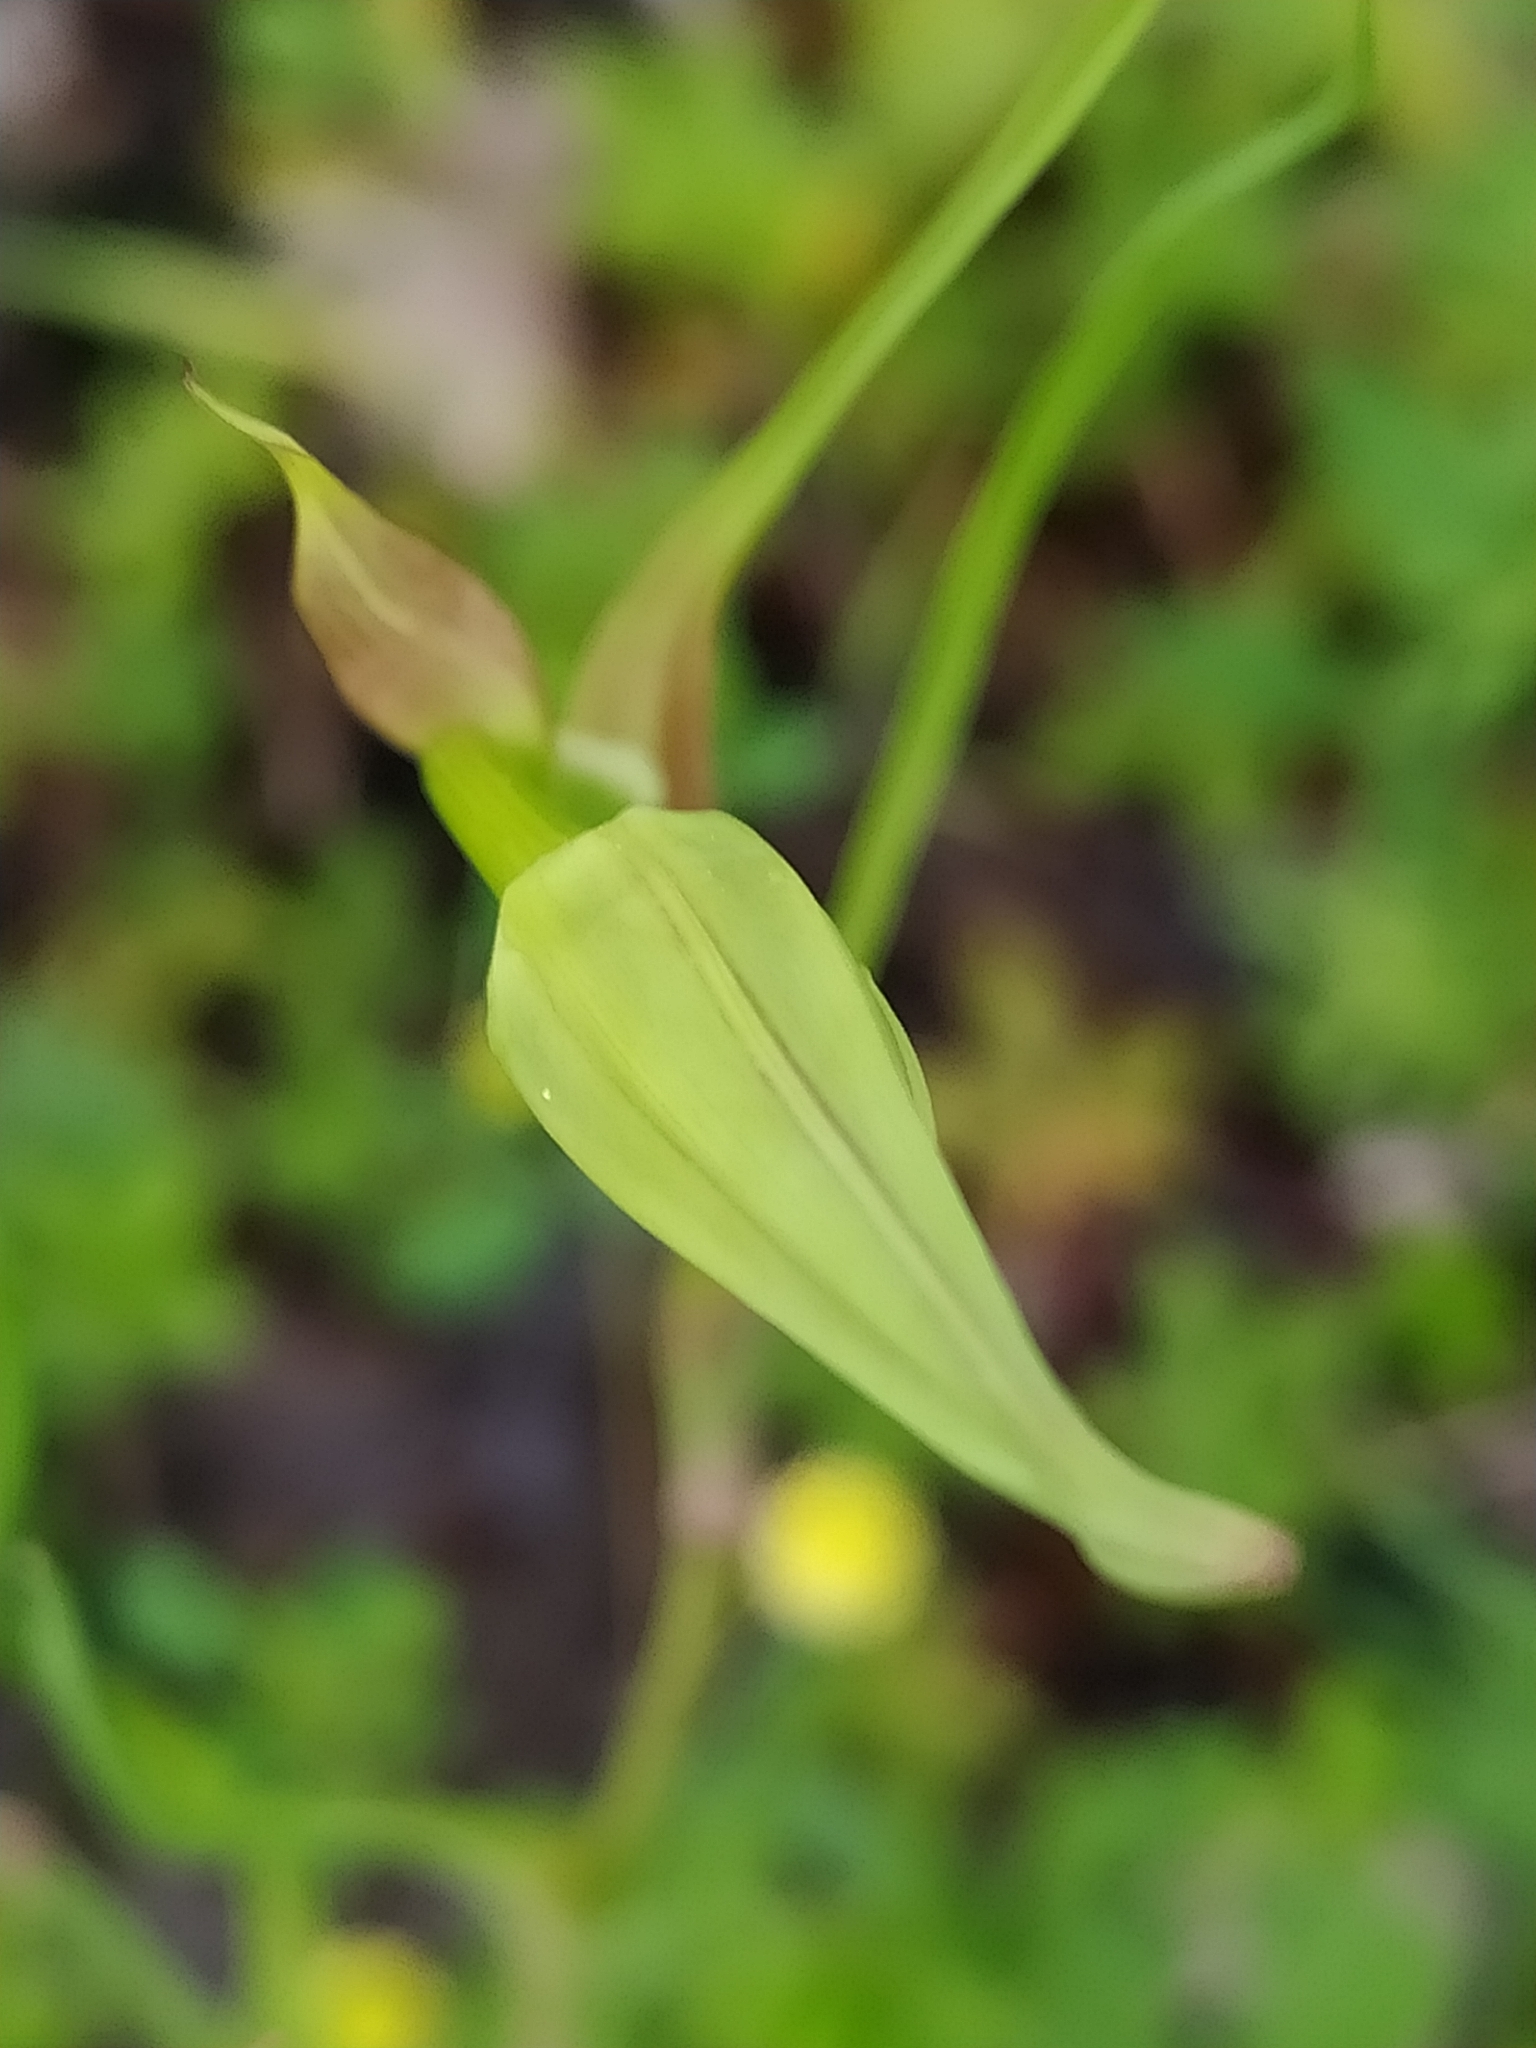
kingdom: Plantae
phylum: Tracheophyta
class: Magnoliopsida
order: Asterales
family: Asteraceae
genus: Tragopogon
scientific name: Tragopogon porrifolius
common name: Salsify
